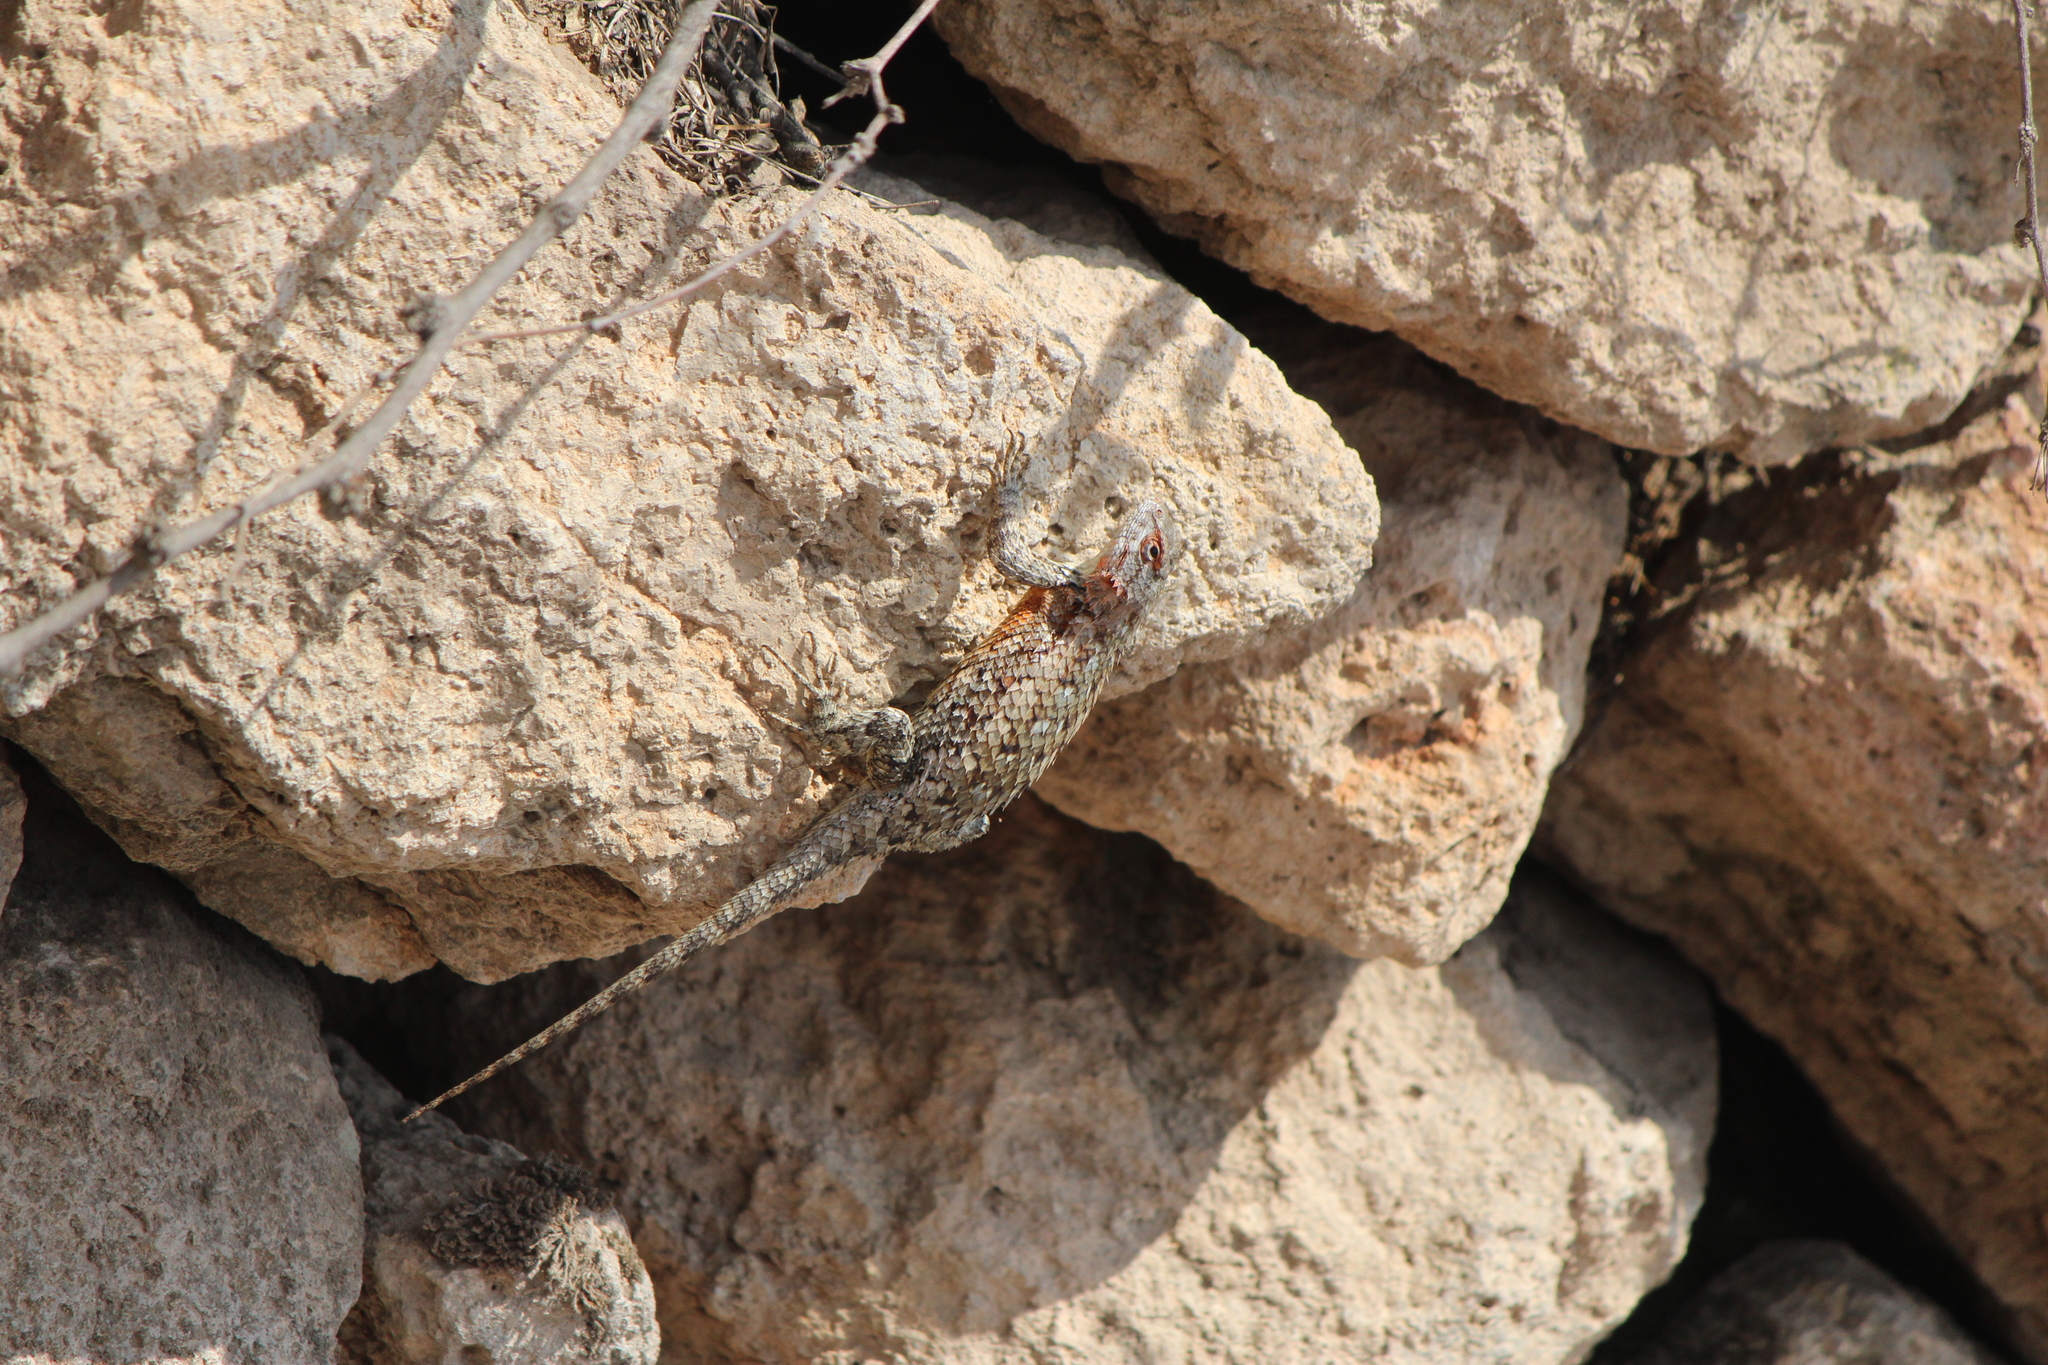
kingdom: Animalia
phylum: Chordata
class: Squamata
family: Phrynosomatidae
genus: Sceloporus
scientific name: Sceloporus spinosus
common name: Blue-spotted spiny lizard [caeruleopunctatus]
